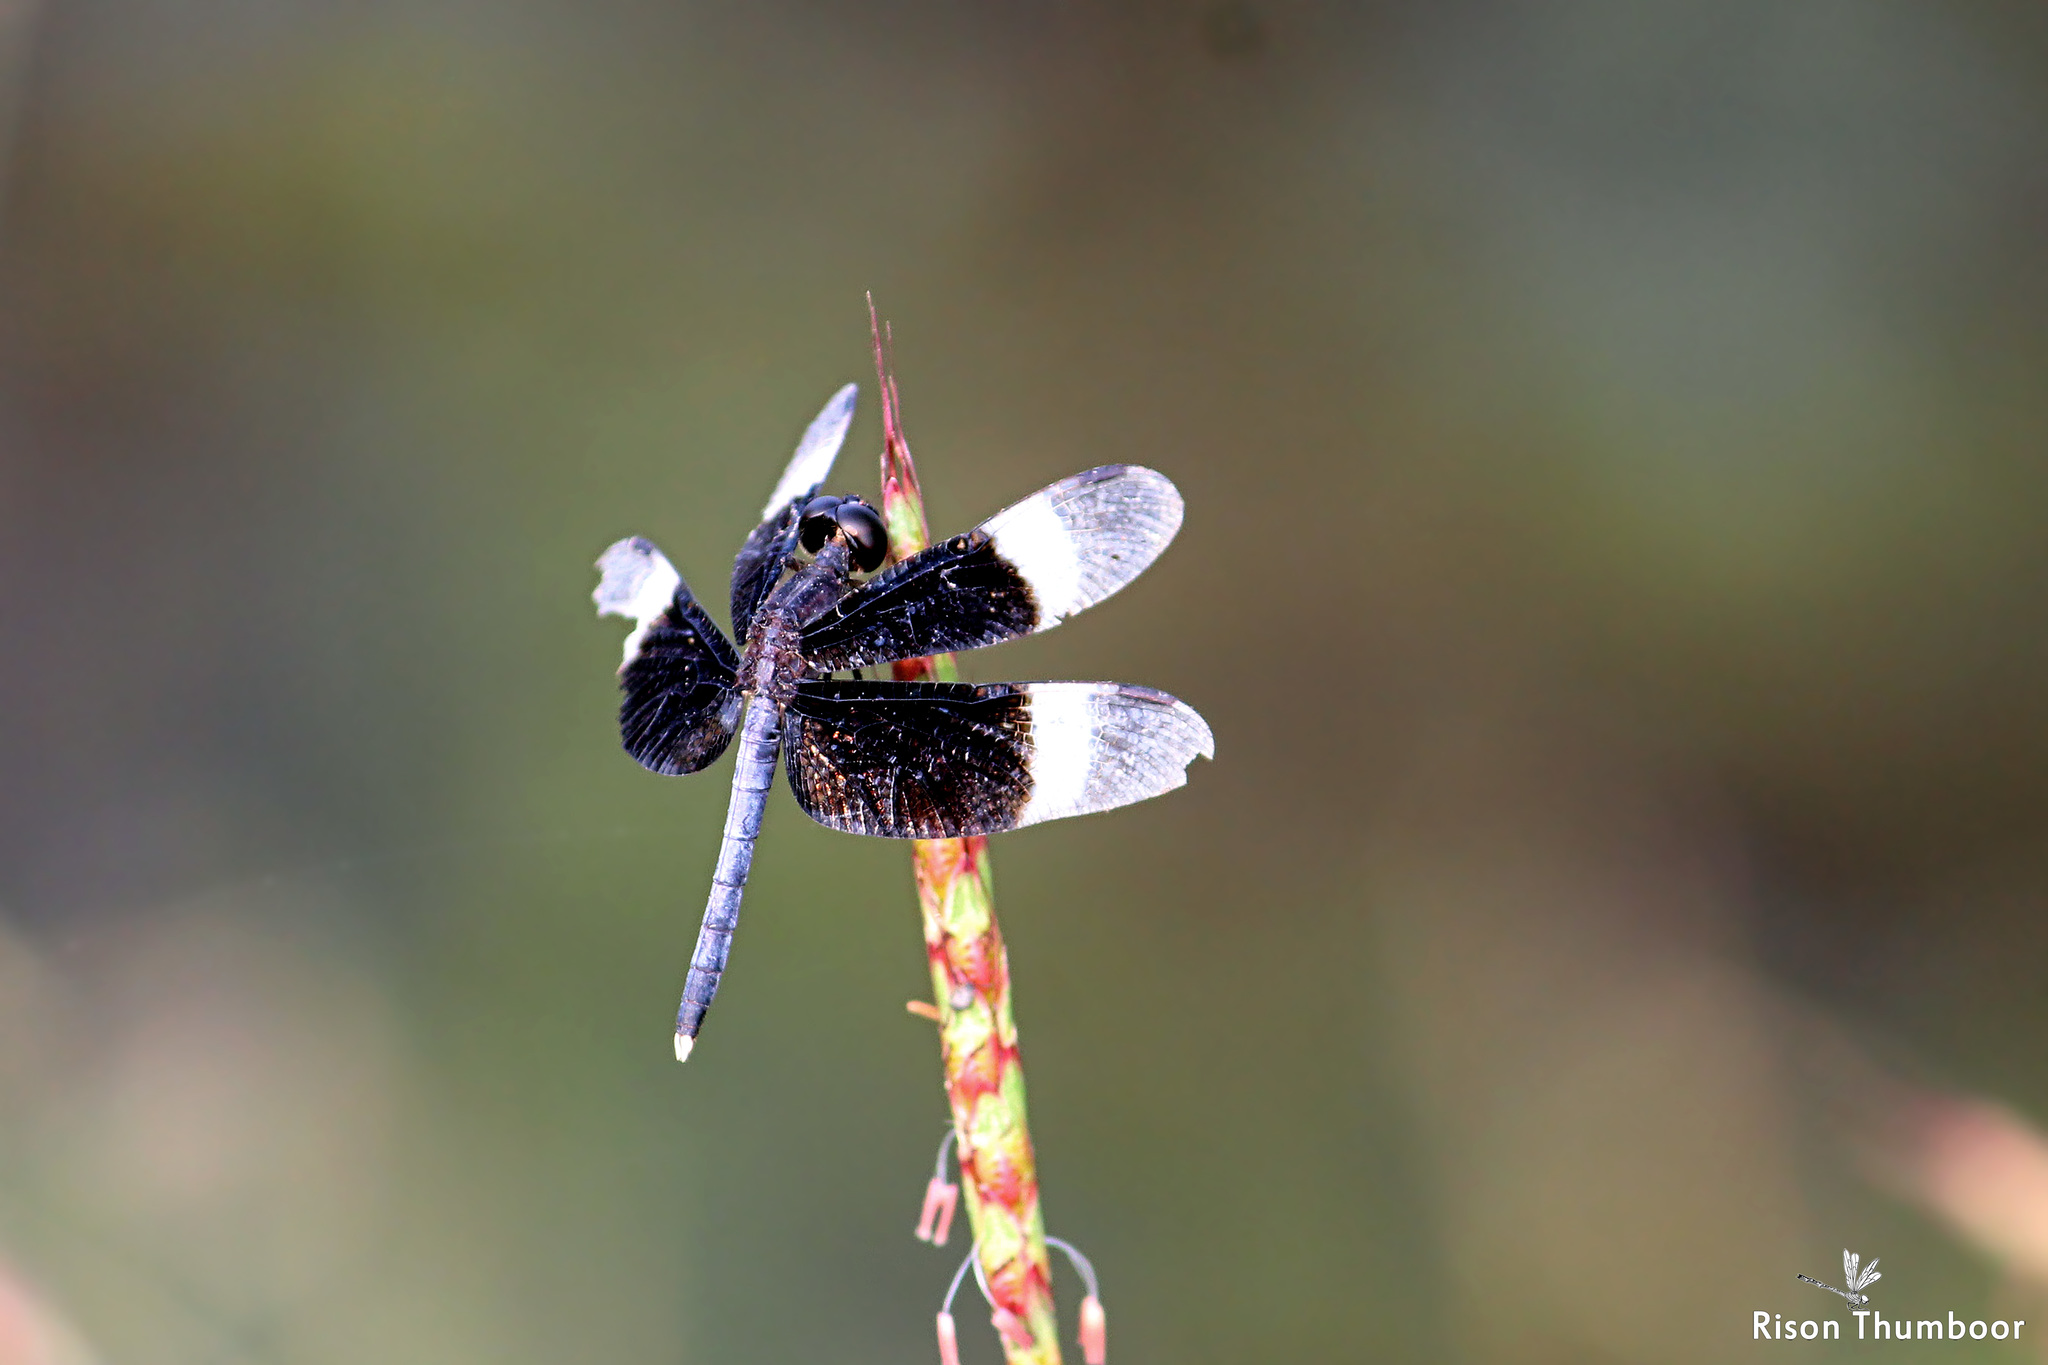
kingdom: Animalia
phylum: Arthropoda
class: Insecta
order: Odonata
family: Libellulidae
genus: Neurothemis
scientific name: Neurothemis tullia
